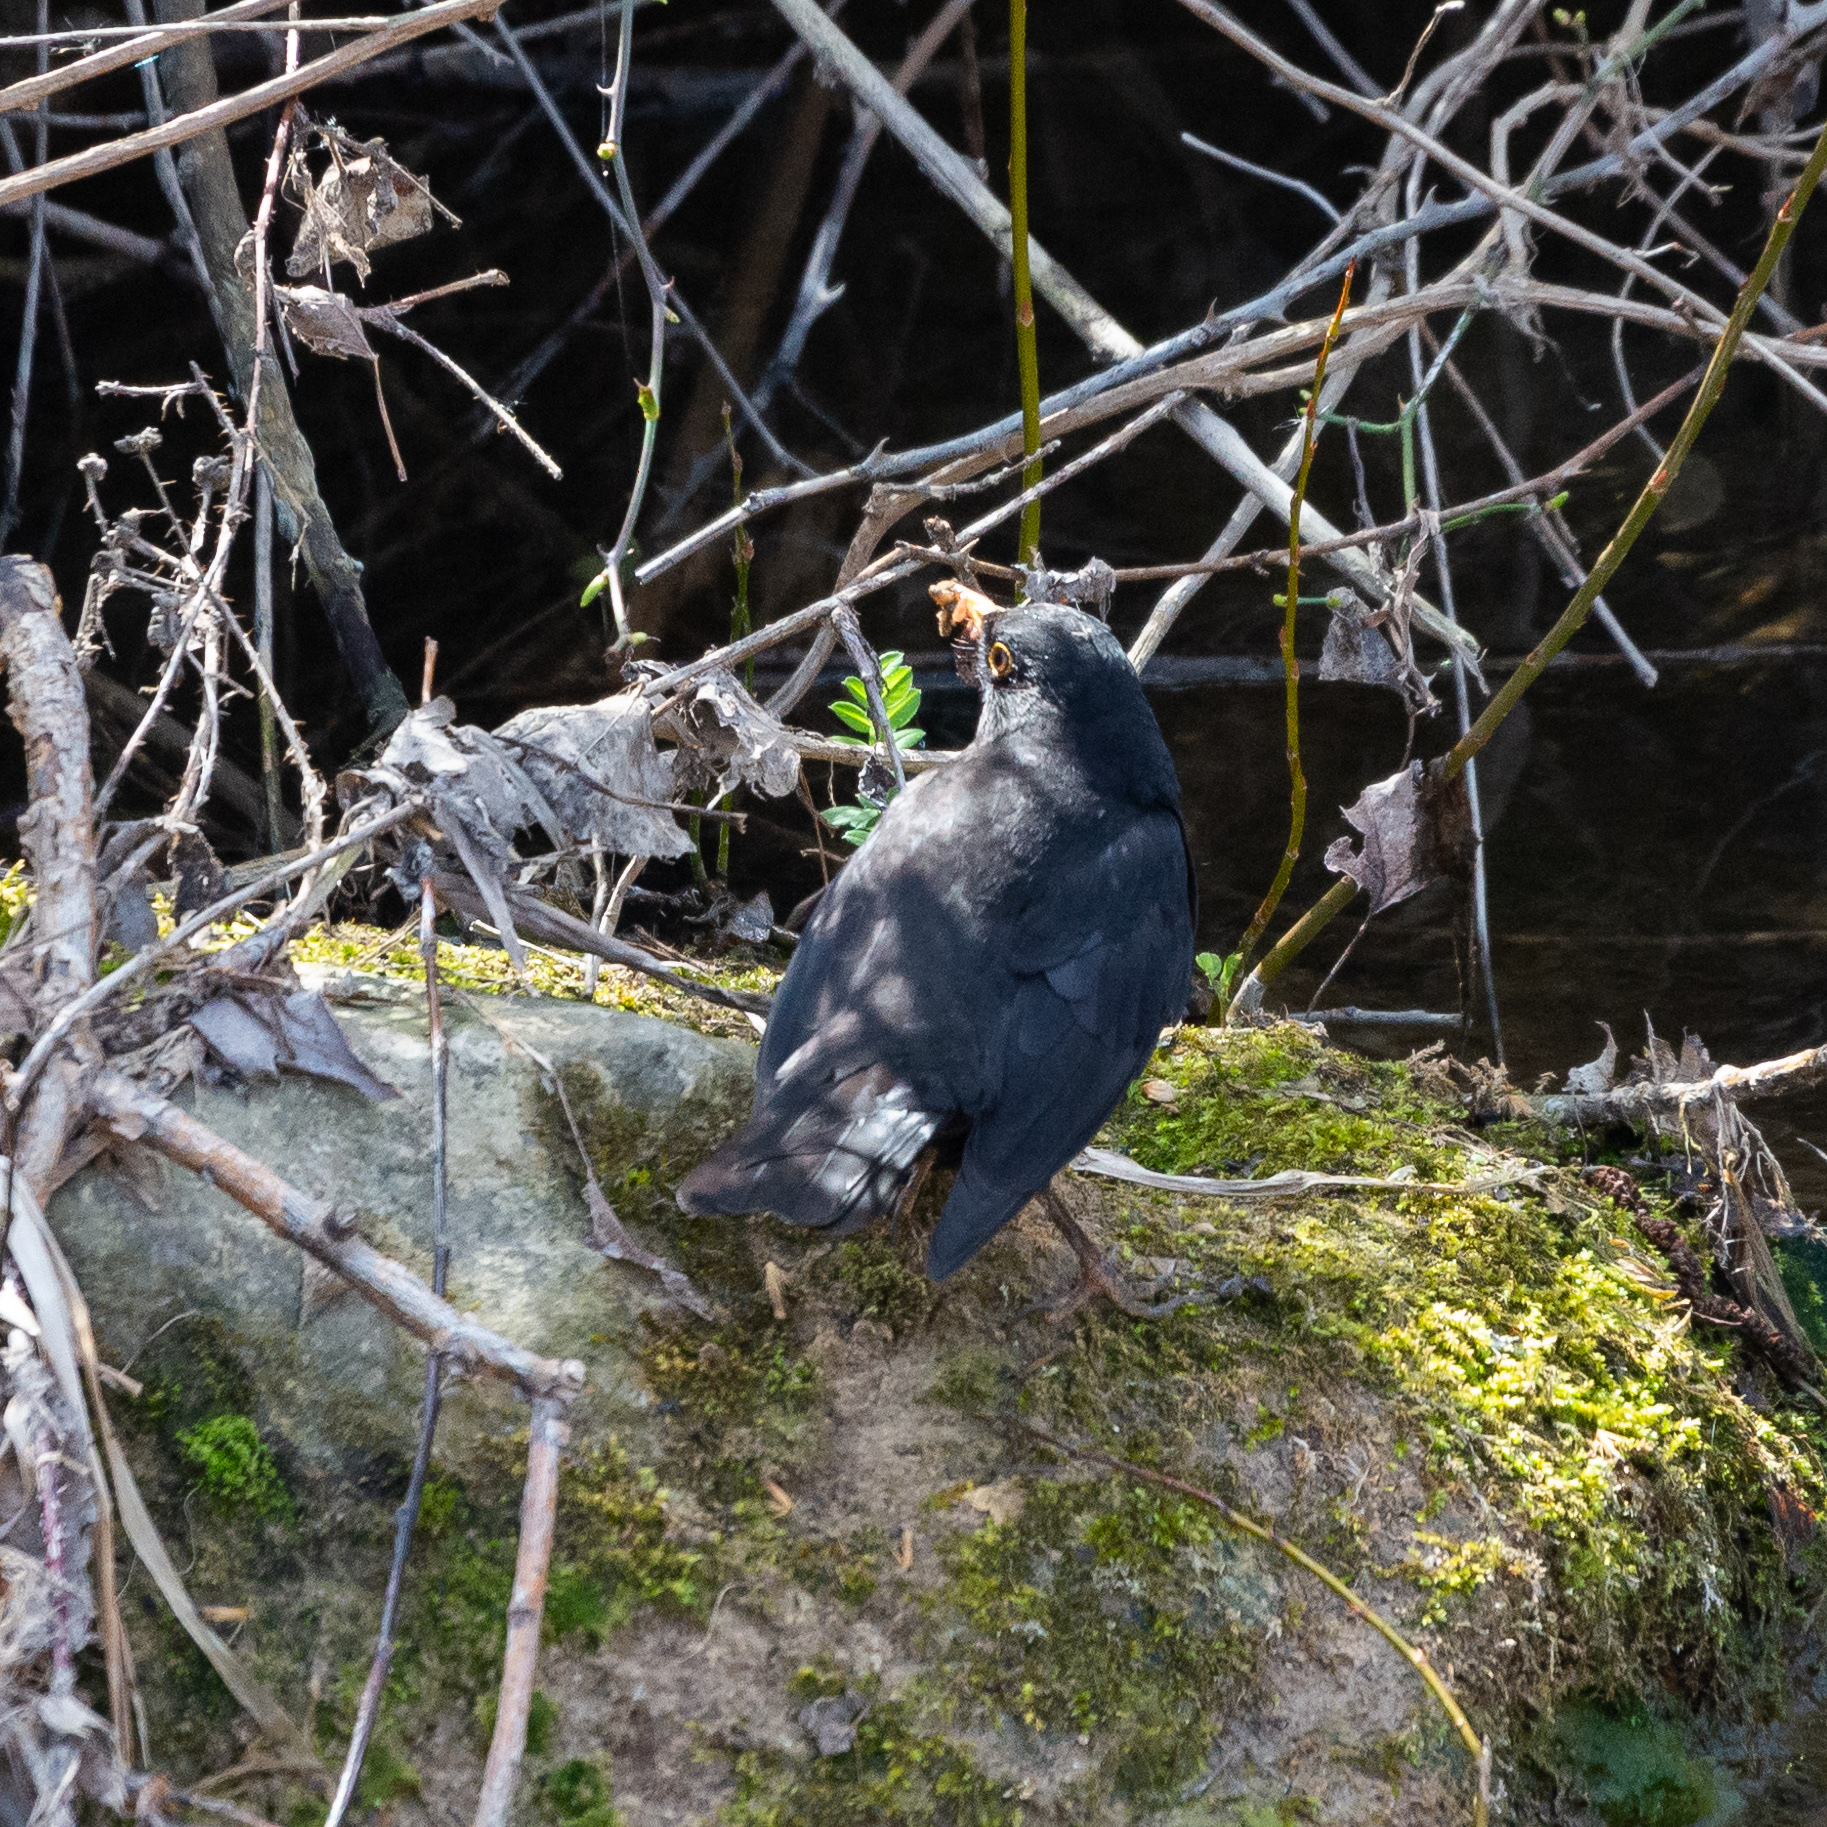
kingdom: Animalia
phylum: Chordata
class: Aves
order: Passeriformes
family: Turdidae
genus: Turdus
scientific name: Turdus merula
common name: Common blackbird
